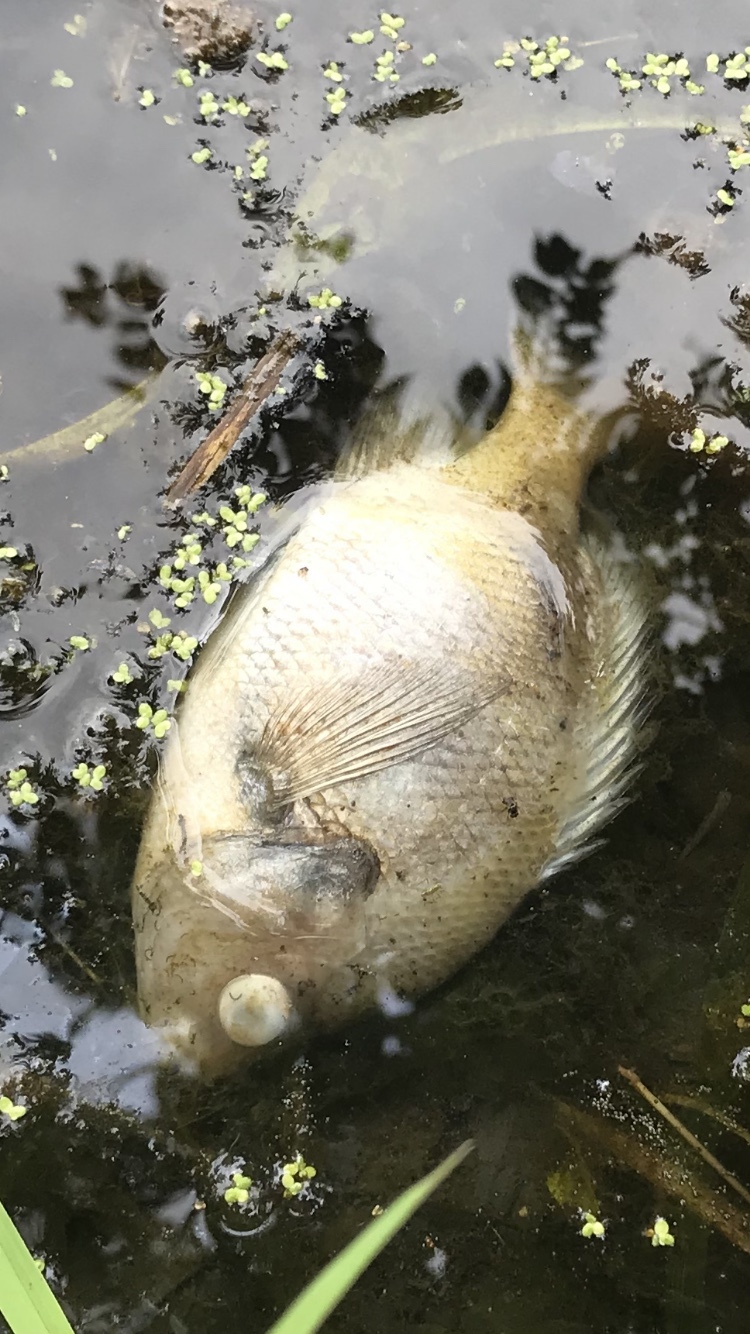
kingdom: Animalia
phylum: Chordata
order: Perciformes
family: Centrarchidae
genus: Lepomis
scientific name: Lepomis
